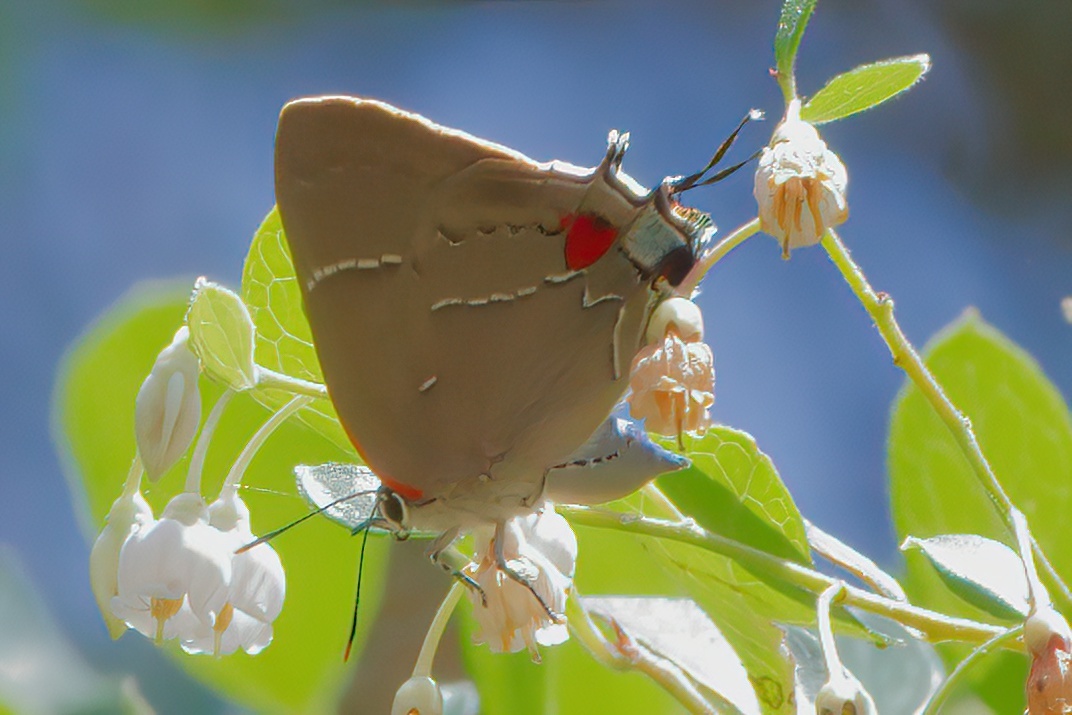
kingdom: Animalia
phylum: Arthropoda
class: Insecta
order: Lepidoptera
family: Lycaenidae
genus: Parrhasius
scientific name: Parrhasius m-album
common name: White m hairstreak
